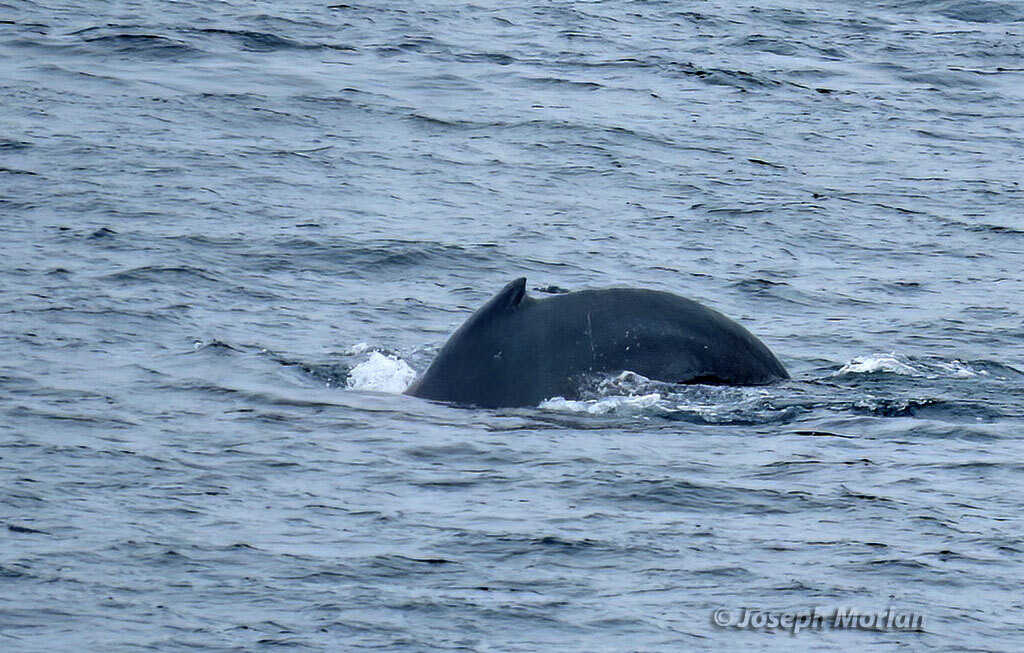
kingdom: Animalia
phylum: Chordata
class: Mammalia
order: Cetacea
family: Balaenopteridae
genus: Megaptera
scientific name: Megaptera novaeangliae
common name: Humpback whale
